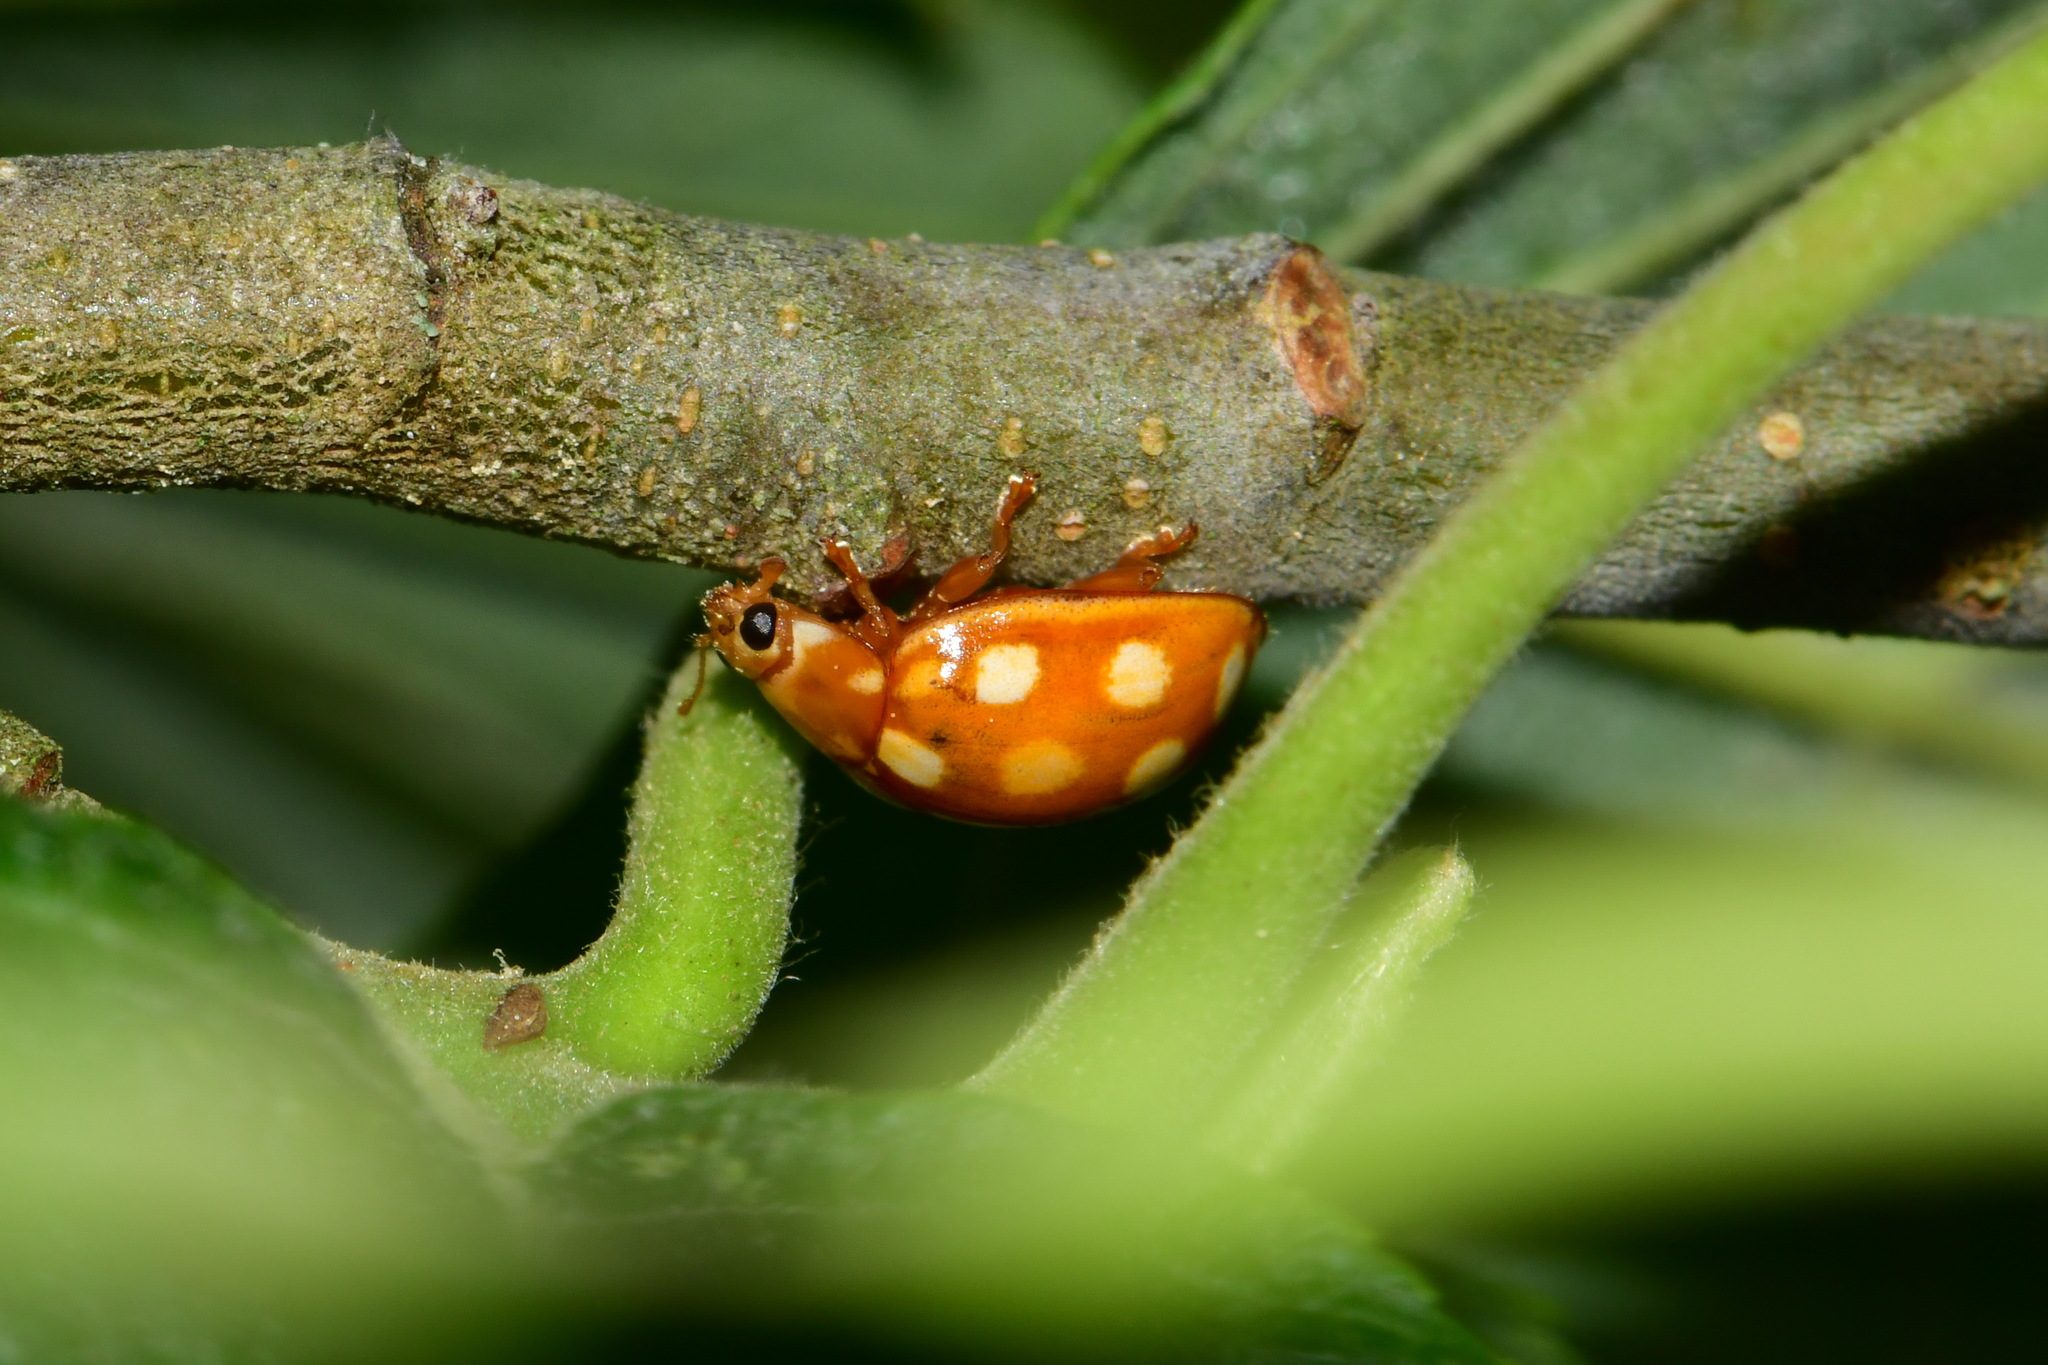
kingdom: Animalia
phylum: Arthropoda
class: Insecta
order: Coleoptera
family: Coccinellidae
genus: Calvia
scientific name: Calvia quindecimguttata
